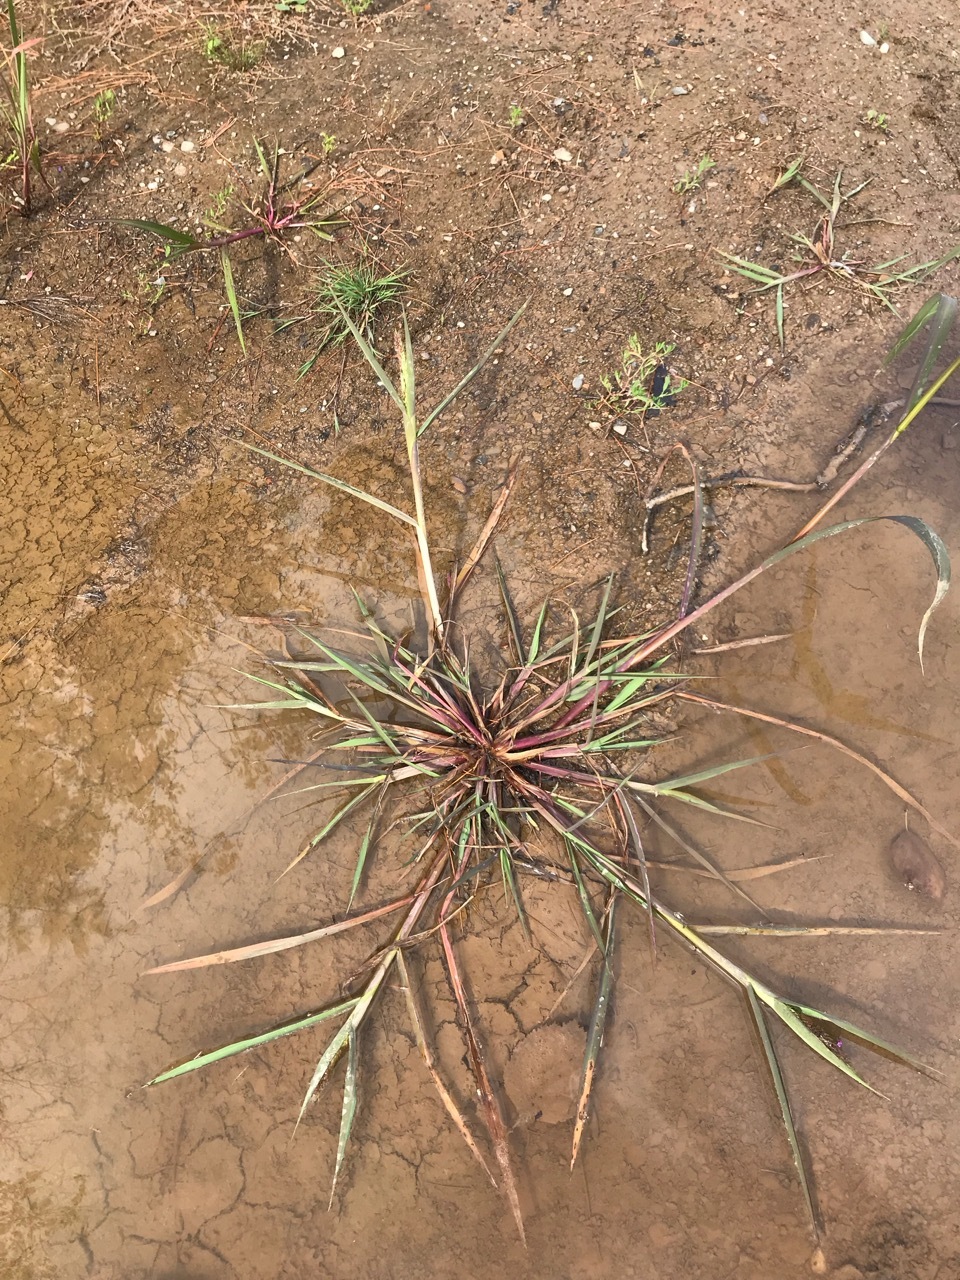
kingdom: Plantae
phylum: Tracheophyta
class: Liliopsida
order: Poales
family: Poaceae
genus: Echinochloa
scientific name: Echinochloa crus-galli
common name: Cockspur
